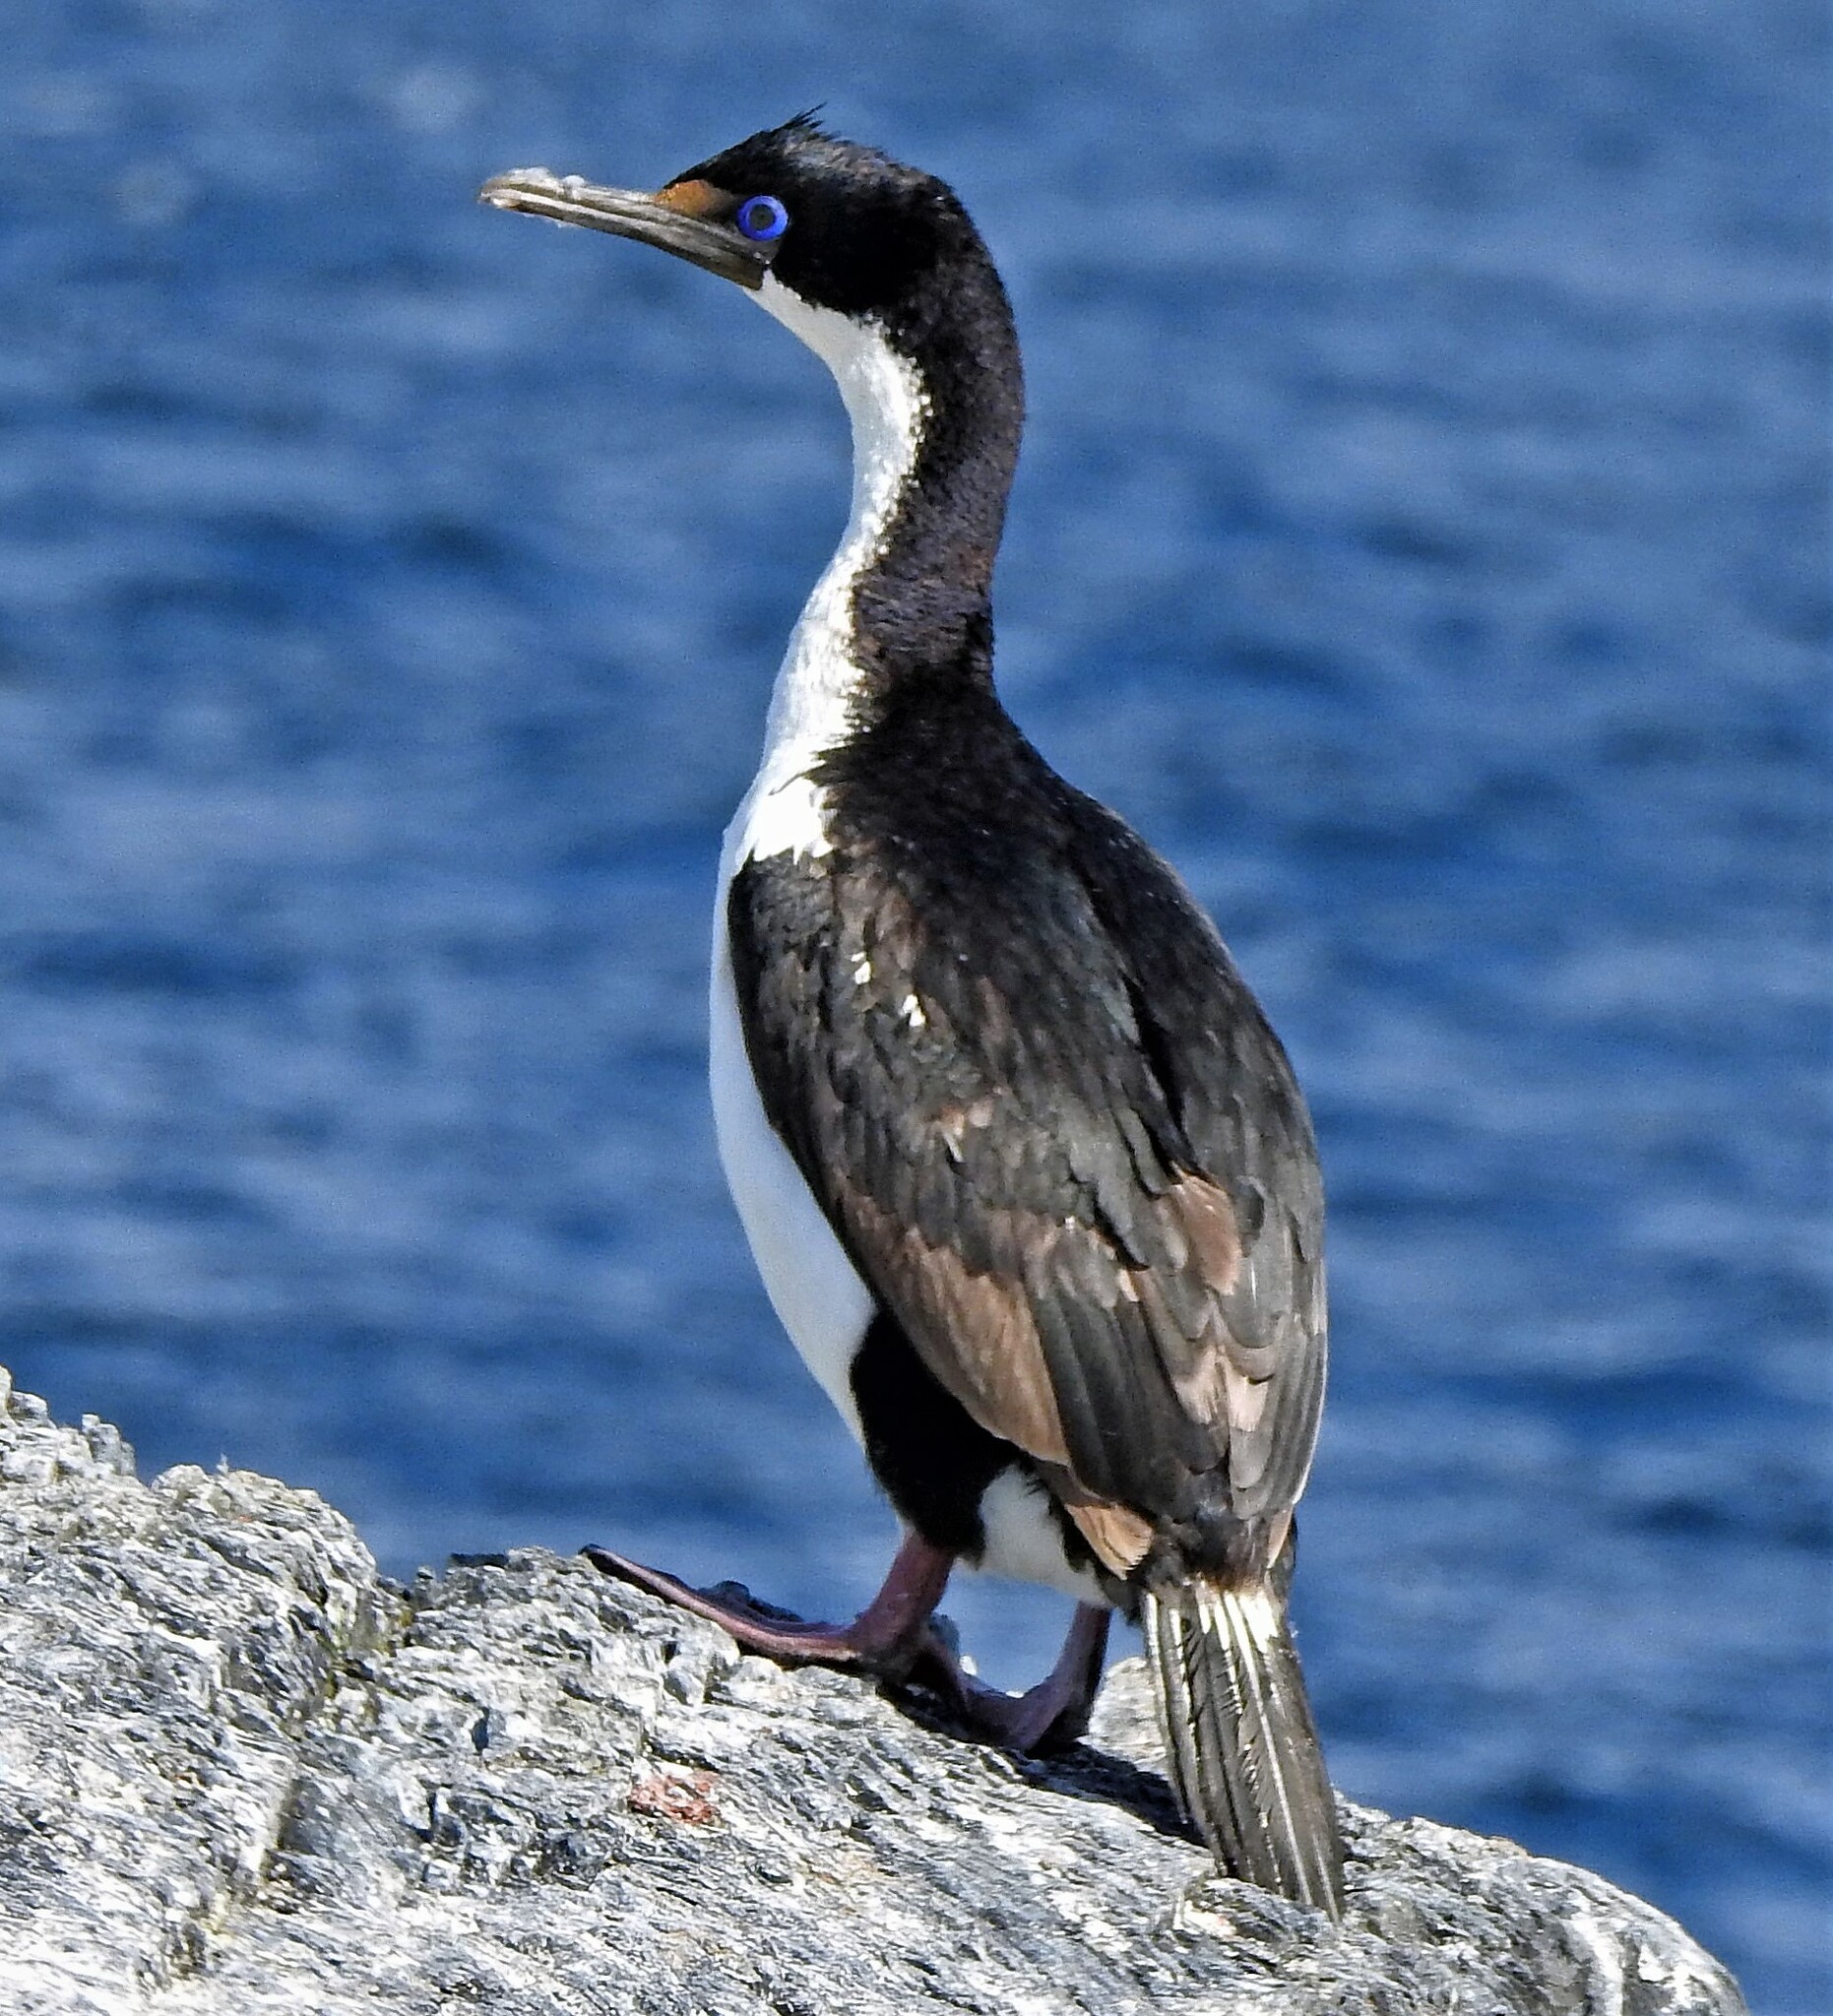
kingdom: Animalia
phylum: Chordata
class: Aves
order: Suliformes
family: Phalacrocoracidae
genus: Leucocarbo
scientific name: Leucocarbo atriceps
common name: Imperial shag
